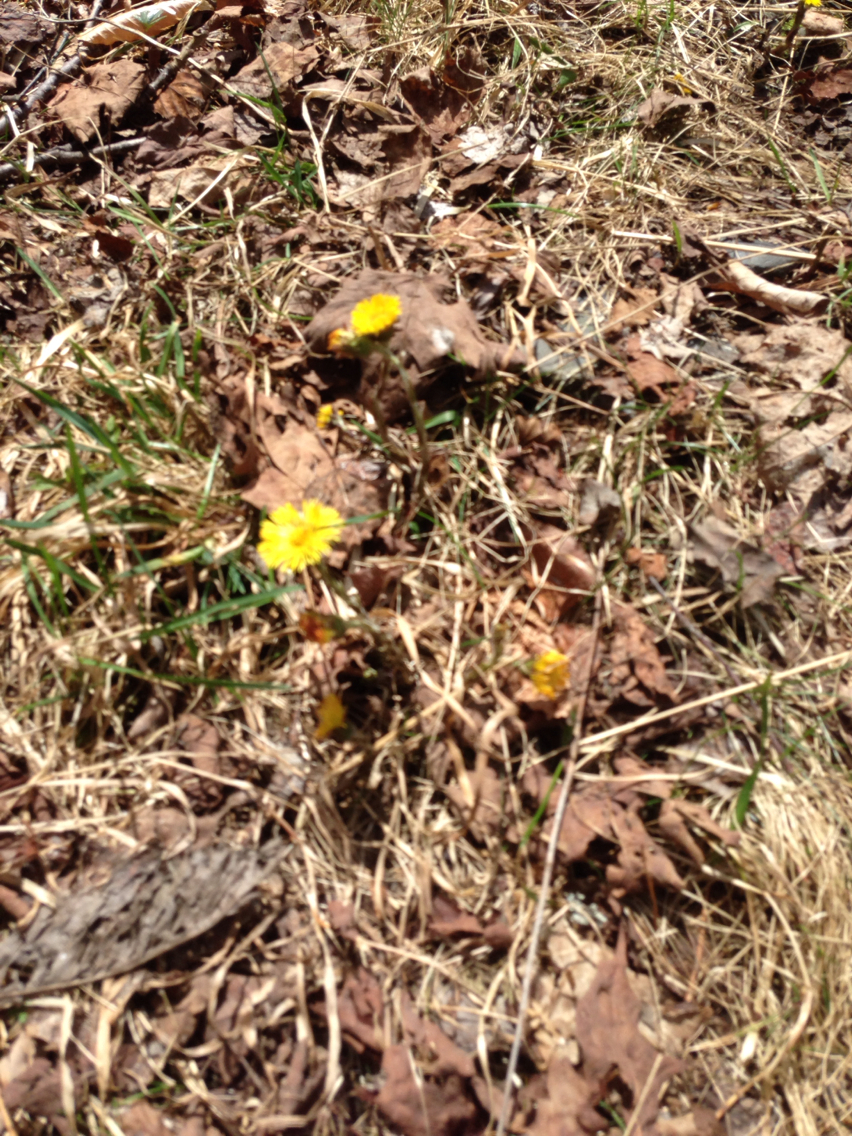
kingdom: Plantae
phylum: Tracheophyta
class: Magnoliopsida
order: Asterales
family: Asteraceae
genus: Tussilago
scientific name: Tussilago farfara
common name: Coltsfoot
